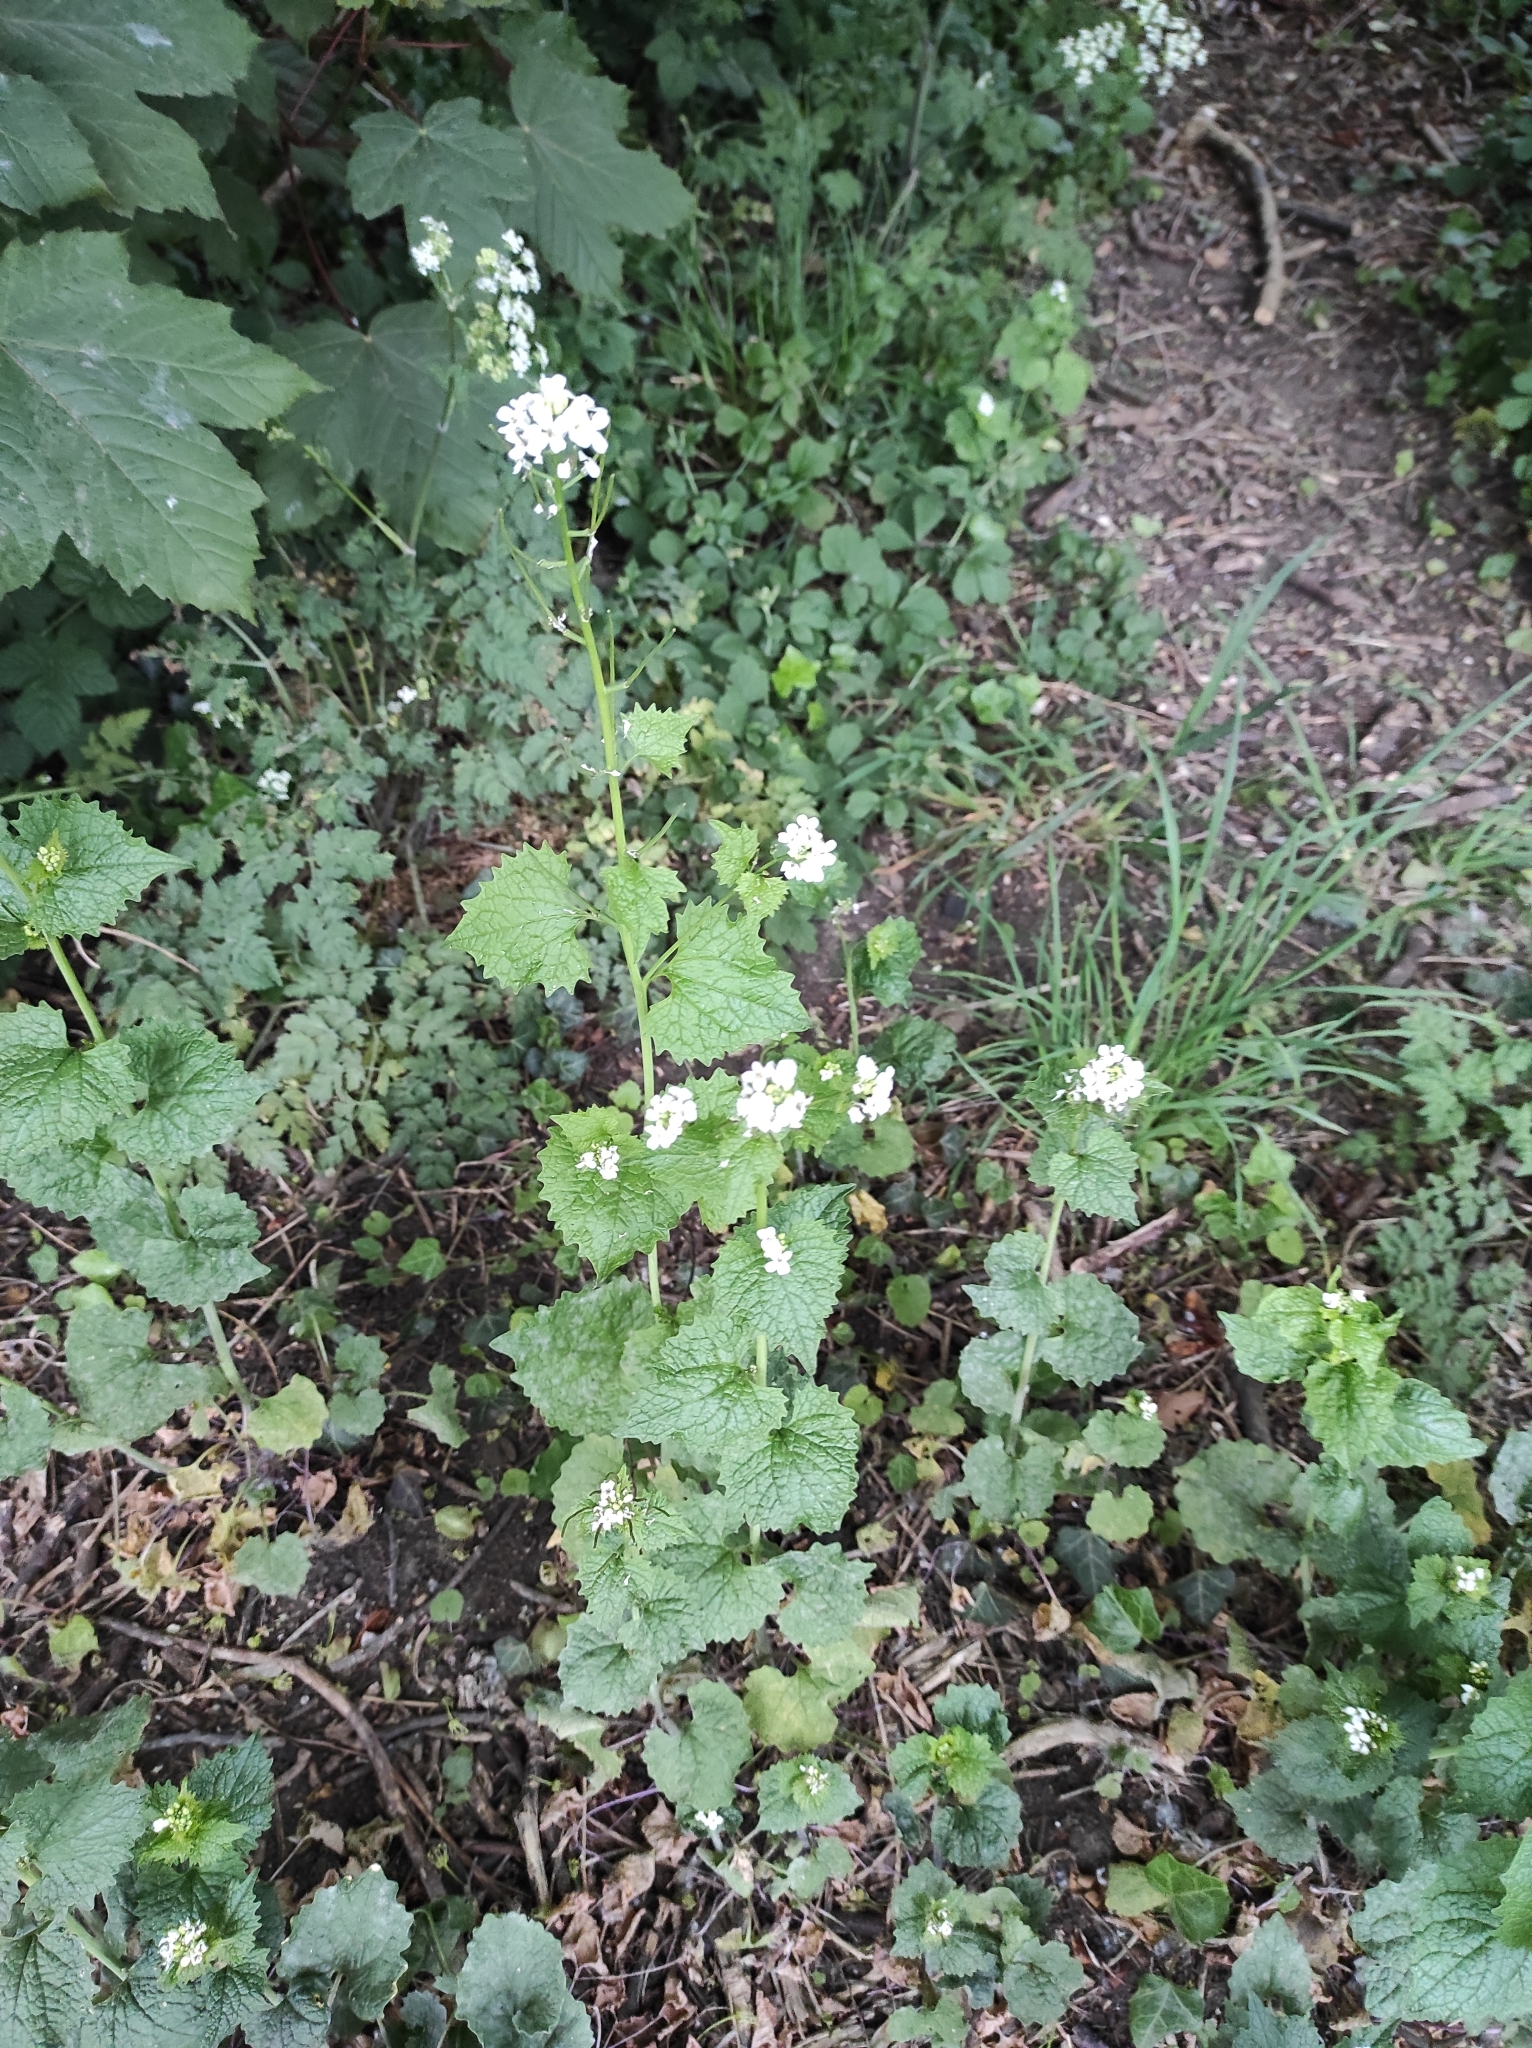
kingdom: Plantae
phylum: Tracheophyta
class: Magnoliopsida
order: Brassicales
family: Brassicaceae
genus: Alliaria
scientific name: Alliaria petiolata
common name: Garlic mustard
